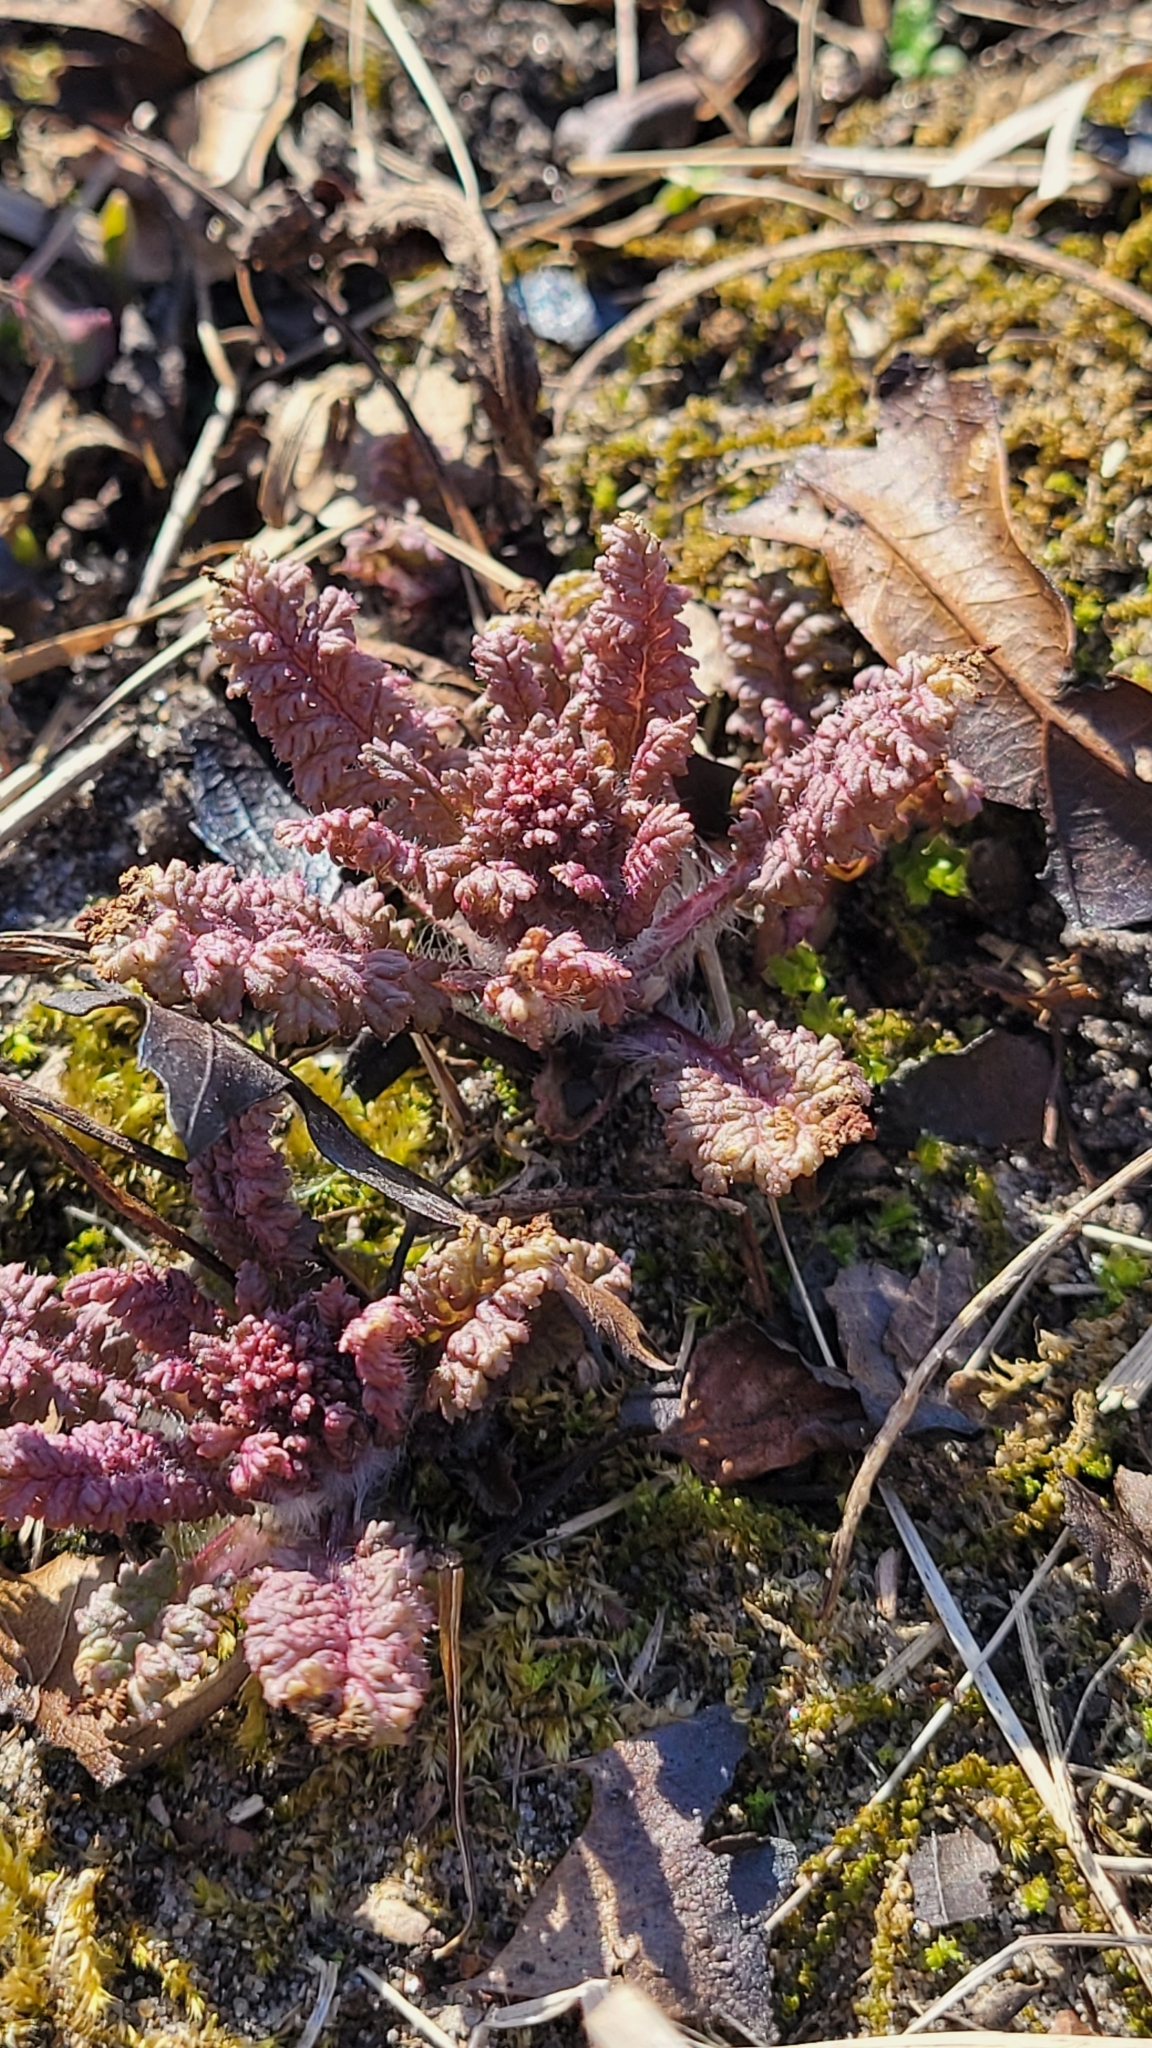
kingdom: Plantae
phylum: Tracheophyta
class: Magnoliopsida
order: Lamiales
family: Orobanchaceae
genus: Pedicularis
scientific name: Pedicularis canadensis
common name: Early lousewort
